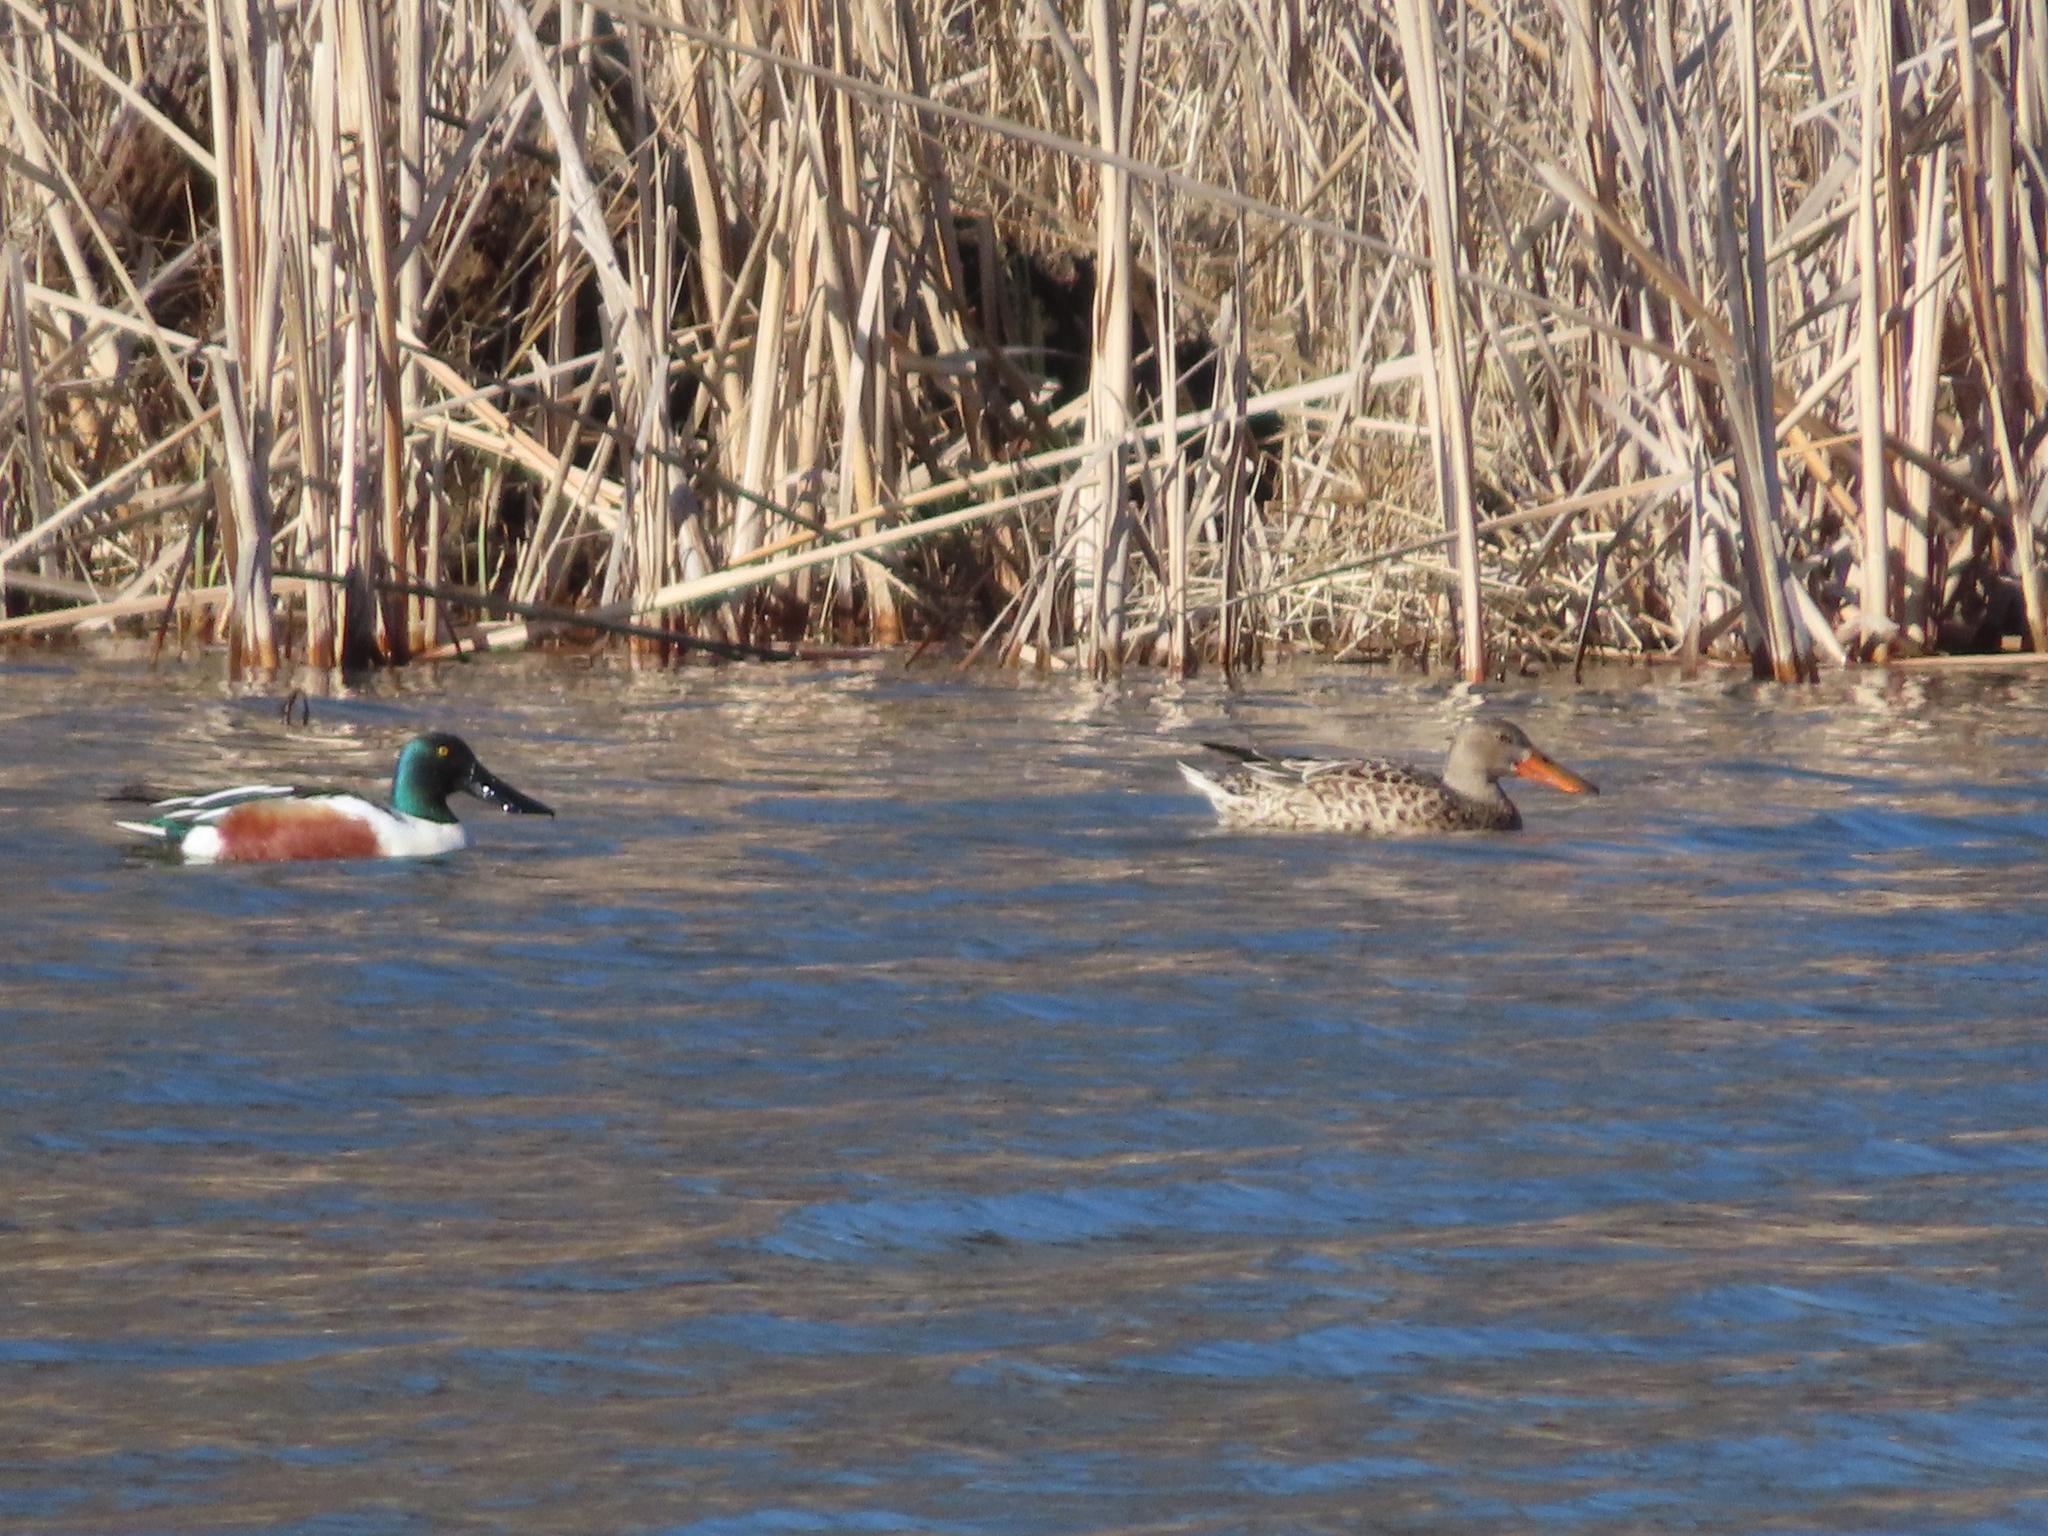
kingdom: Animalia
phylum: Chordata
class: Aves
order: Anseriformes
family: Anatidae
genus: Spatula
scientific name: Spatula clypeata
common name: Northern shoveler
